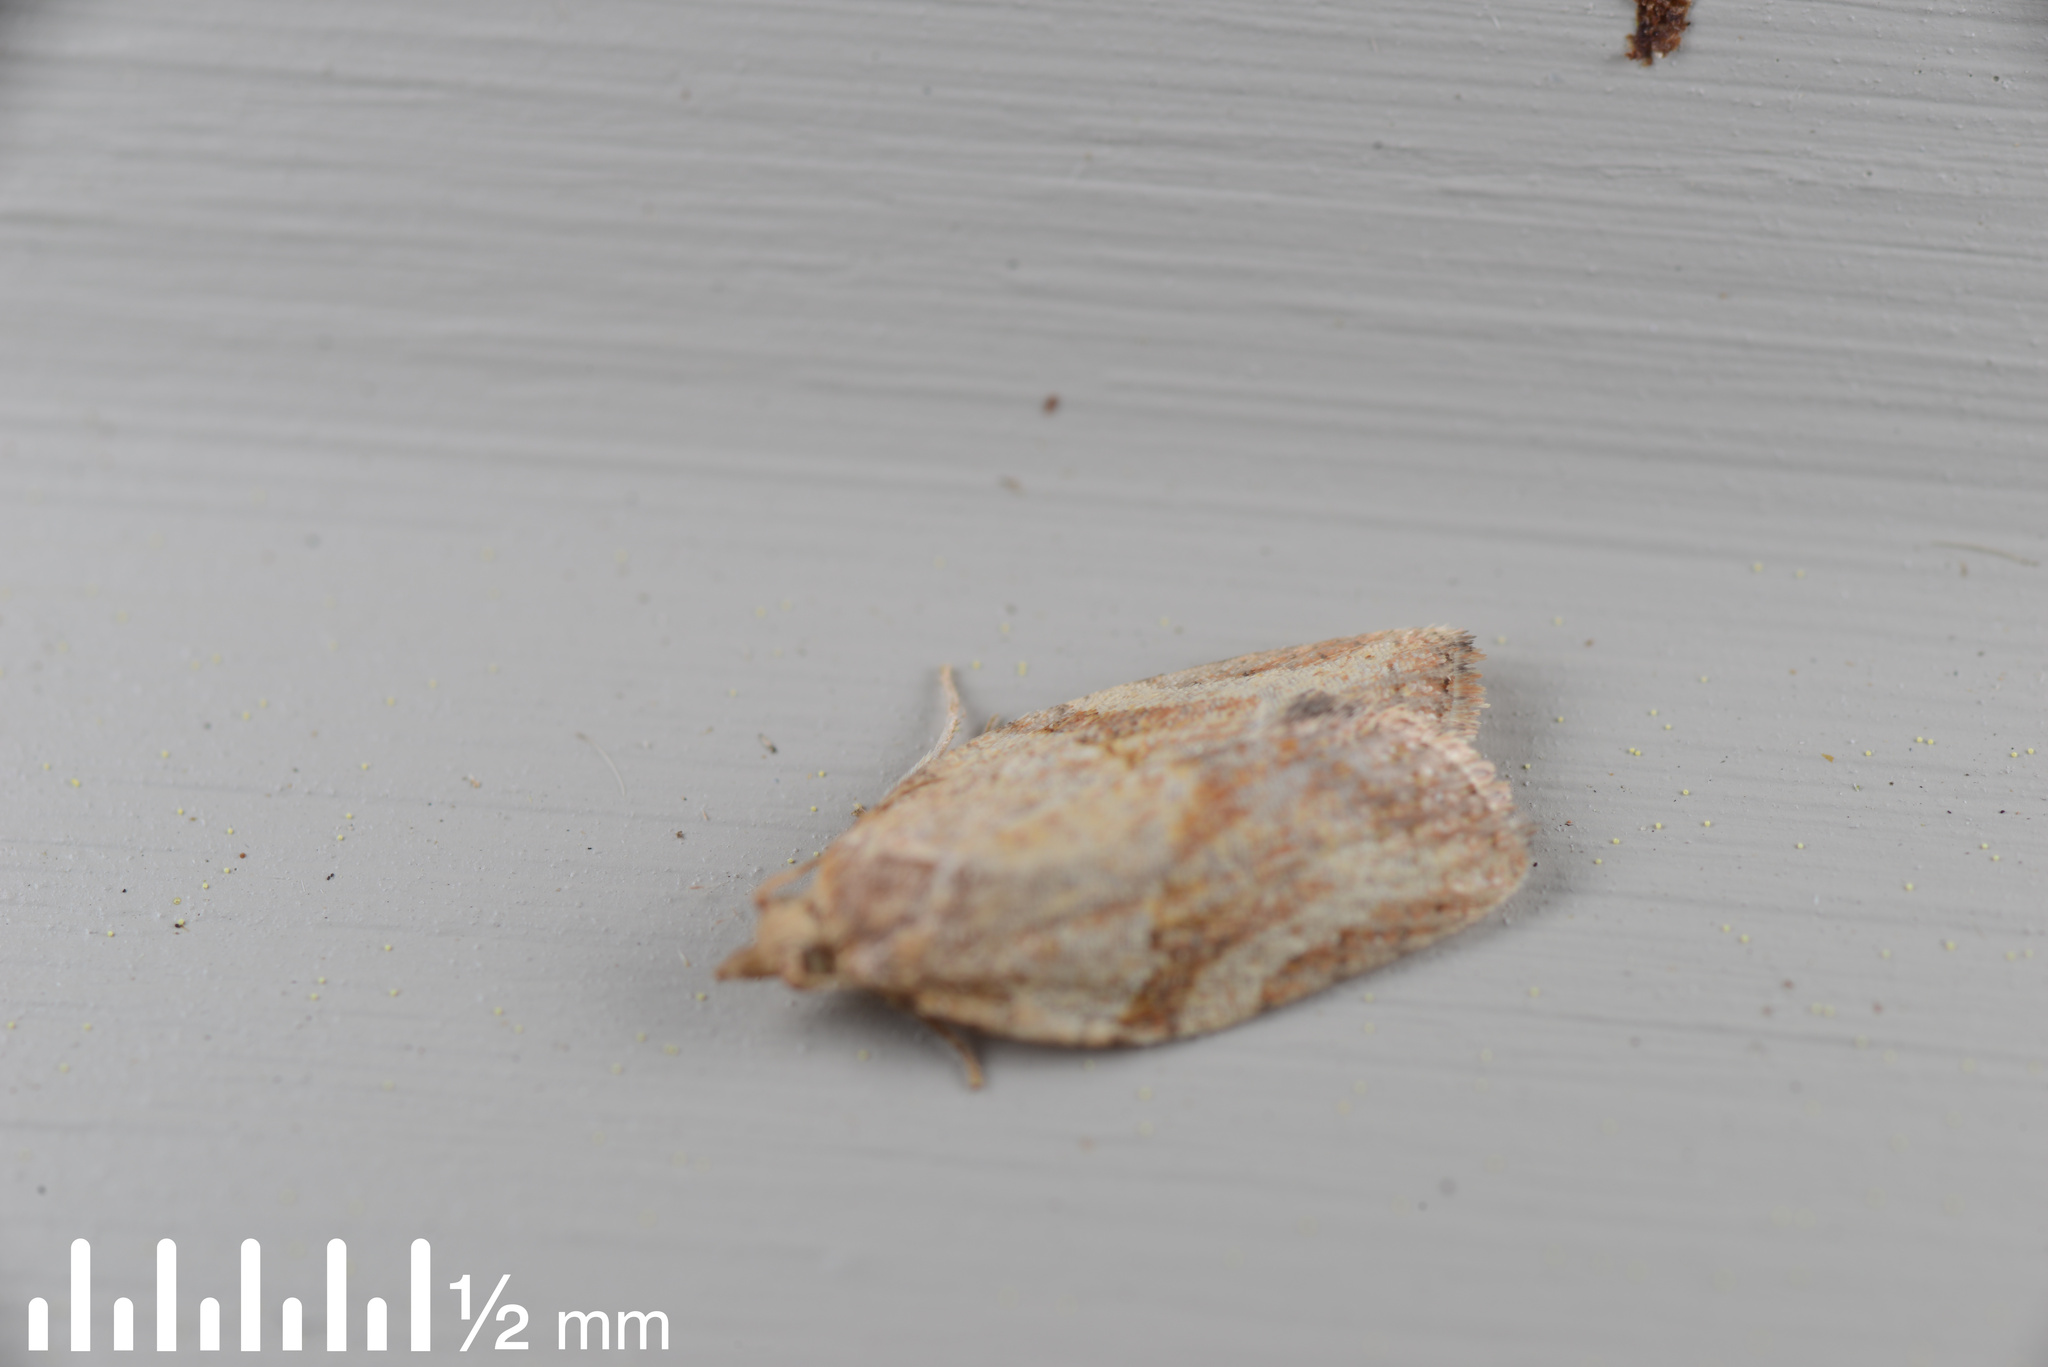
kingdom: Animalia
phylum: Arthropoda
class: Insecta
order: Lepidoptera
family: Tortricidae
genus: Epiphyas
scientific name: Epiphyas postvittana
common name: Light brown apple moth
